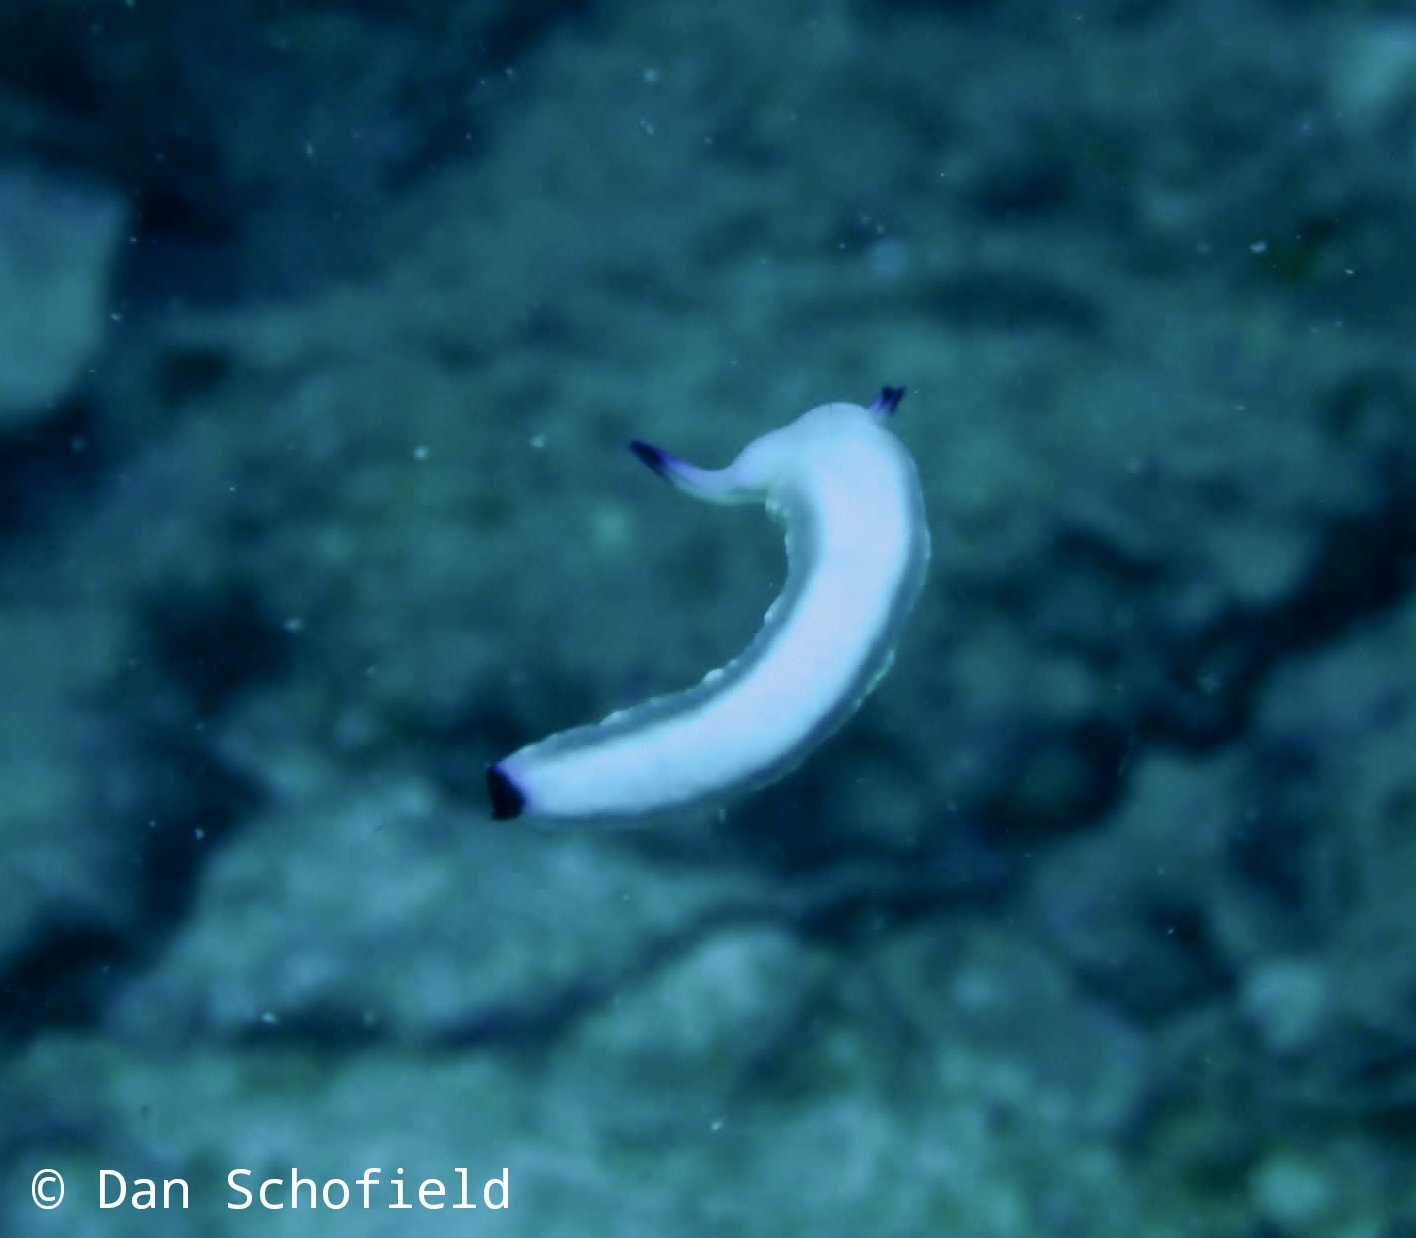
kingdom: Animalia
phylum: Mollusca
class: Gastropoda
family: Plakobranchidae
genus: Plakobranchus
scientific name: Plakobranchus papua
